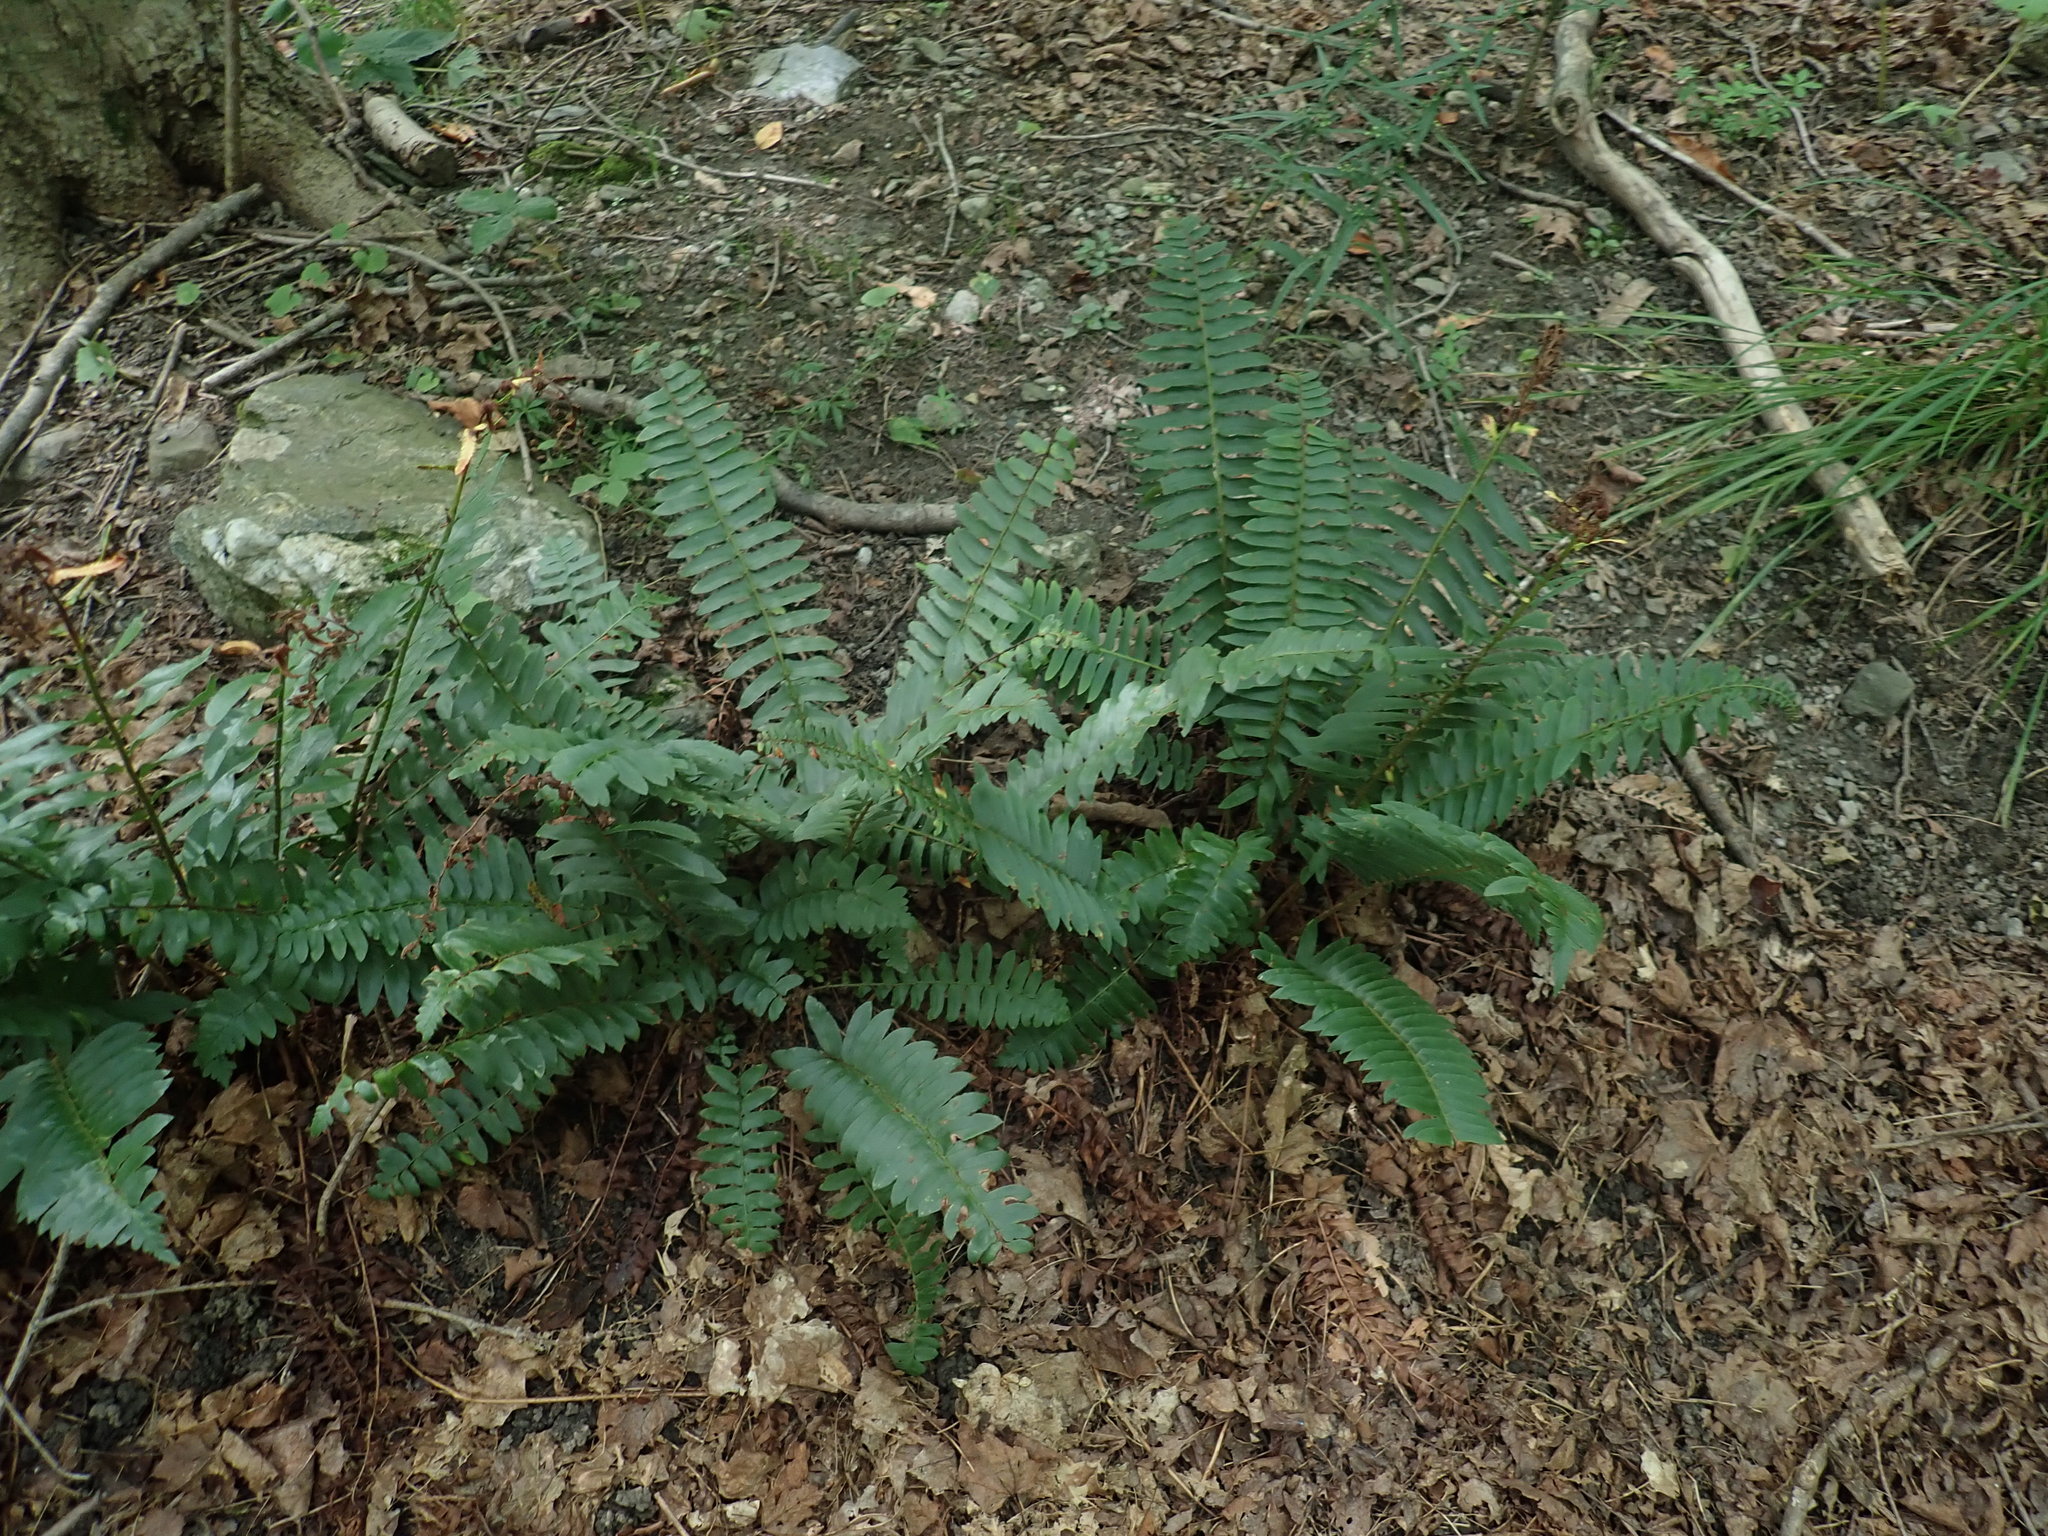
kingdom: Plantae
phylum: Tracheophyta
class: Polypodiopsida
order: Polypodiales
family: Dryopteridaceae
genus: Polystichum
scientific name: Polystichum acrostichoides
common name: Christmas fern
